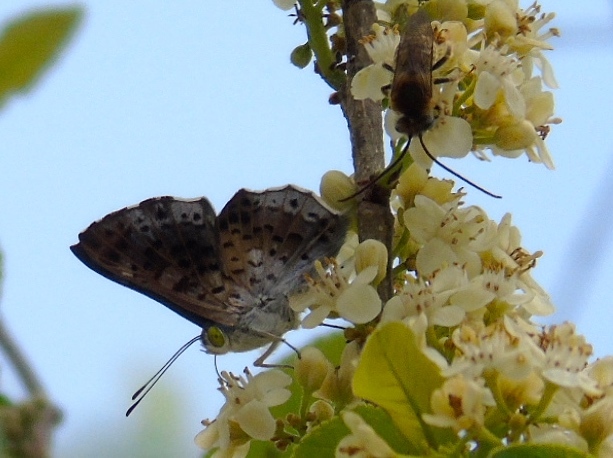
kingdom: Animalia
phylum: Arthropoda
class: Insecta
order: Lepidoptera
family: Riodinidae
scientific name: Riodinidae
